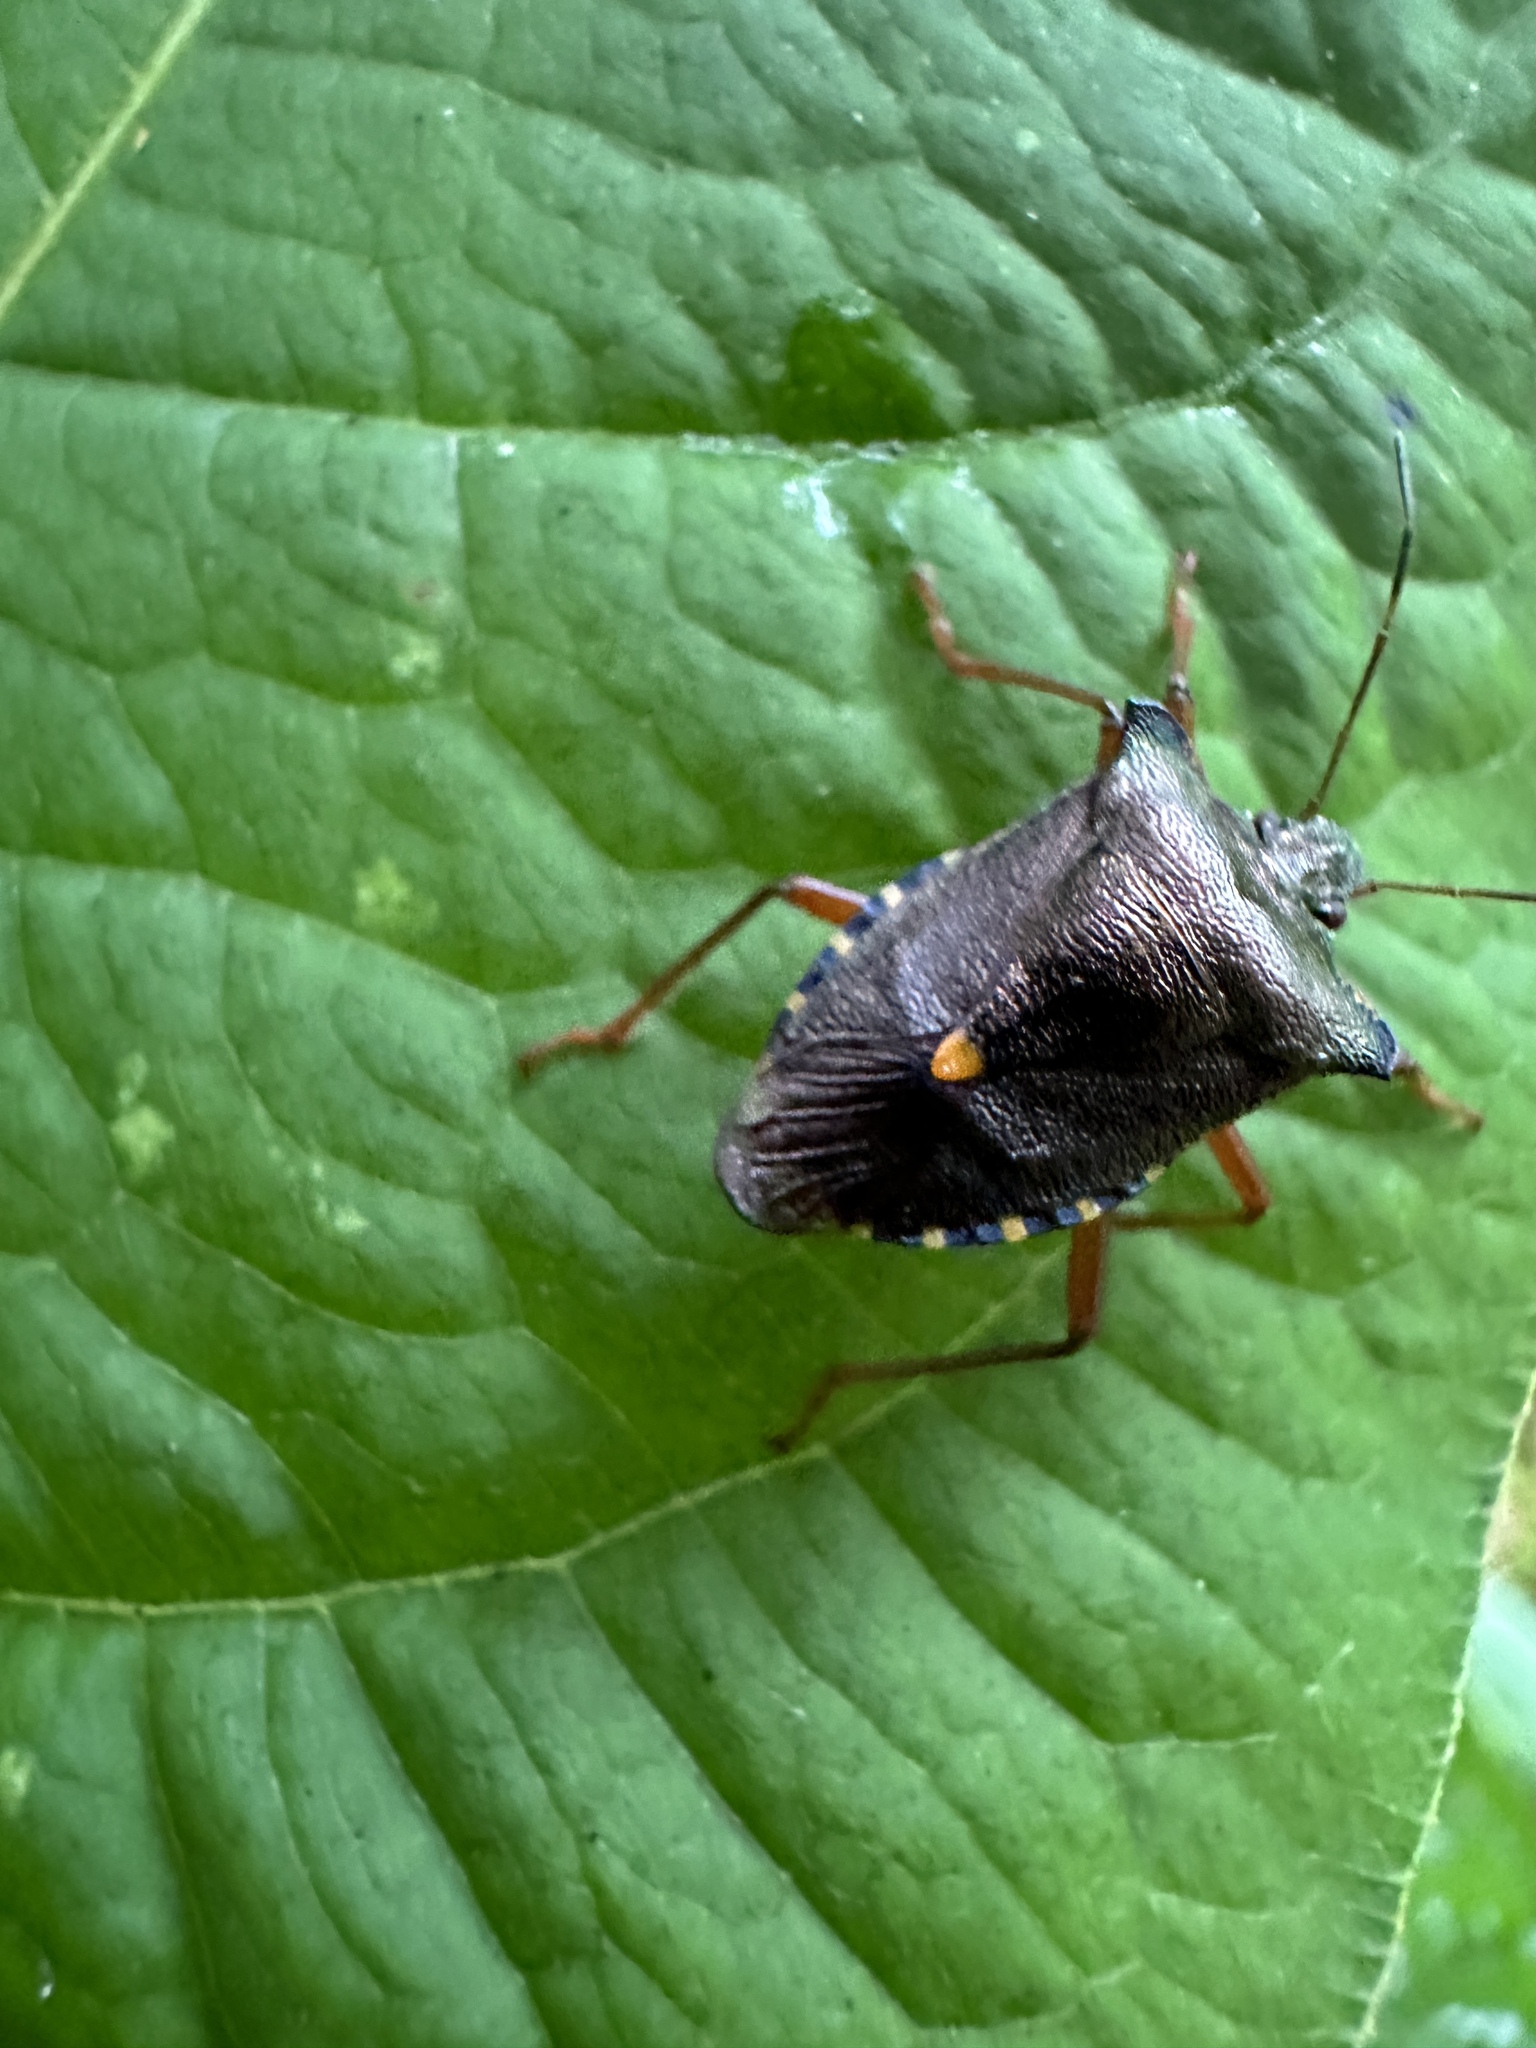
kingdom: Animalia
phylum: Arthropoda
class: Insecta
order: Hemiptera
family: Pentatomidae
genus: Pentatoma
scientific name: Pentatoma rufipes
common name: Forest bug
